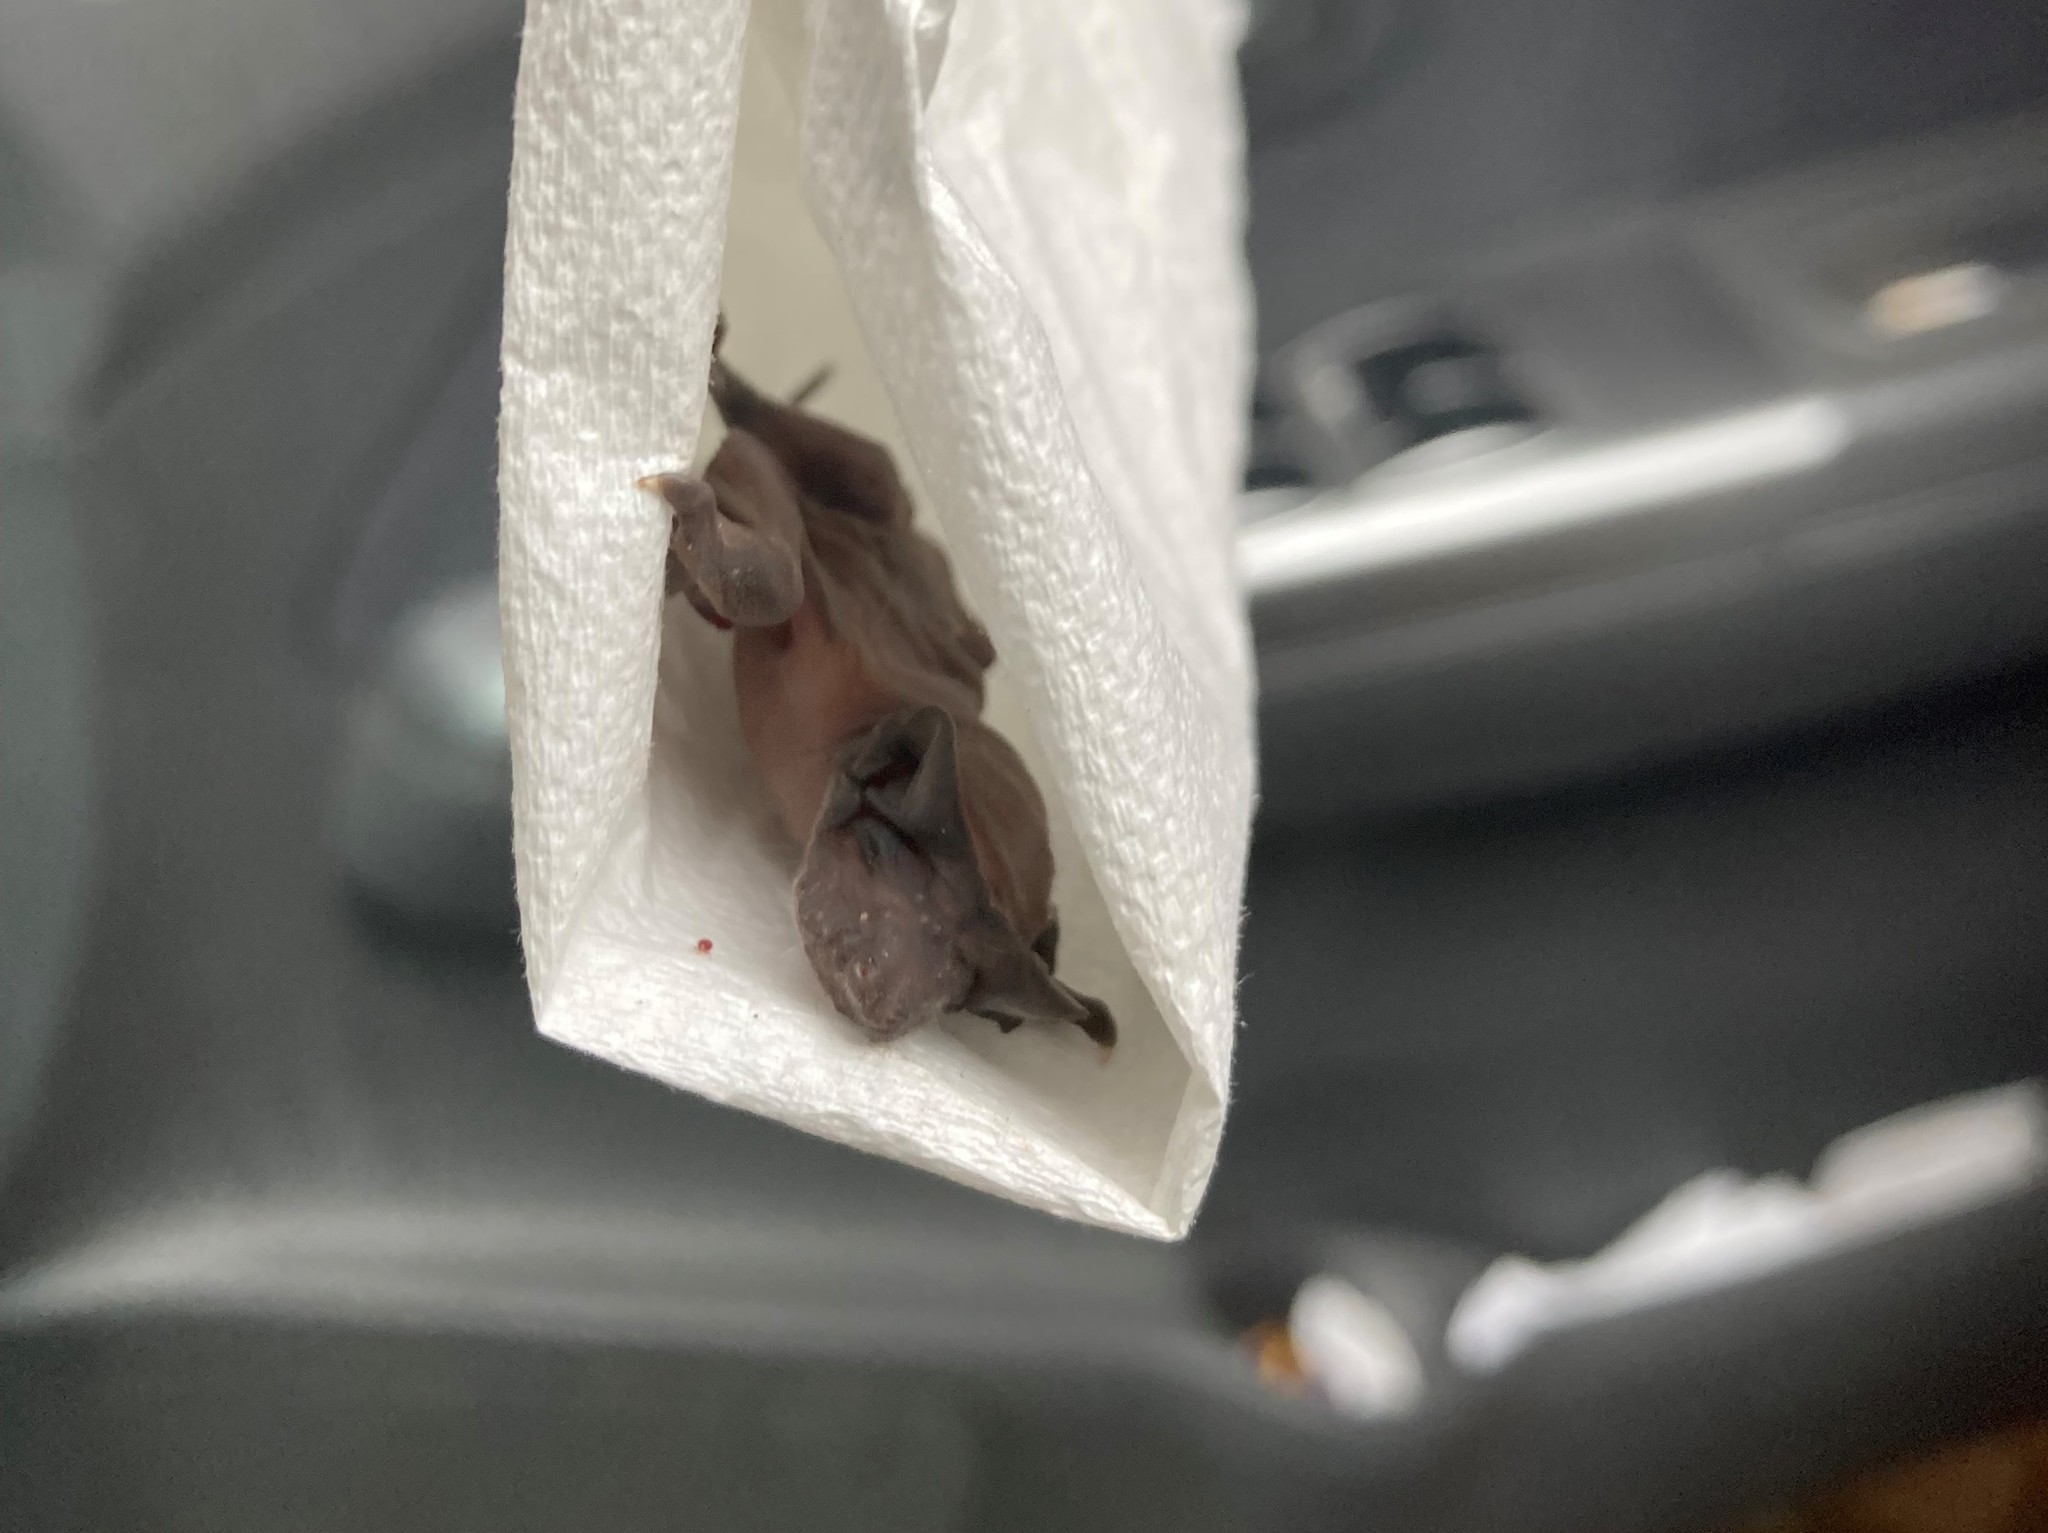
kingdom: Animalia
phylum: Chordata
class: Mammalia
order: Chiroptera
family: Molossidae
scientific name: Molossidae
